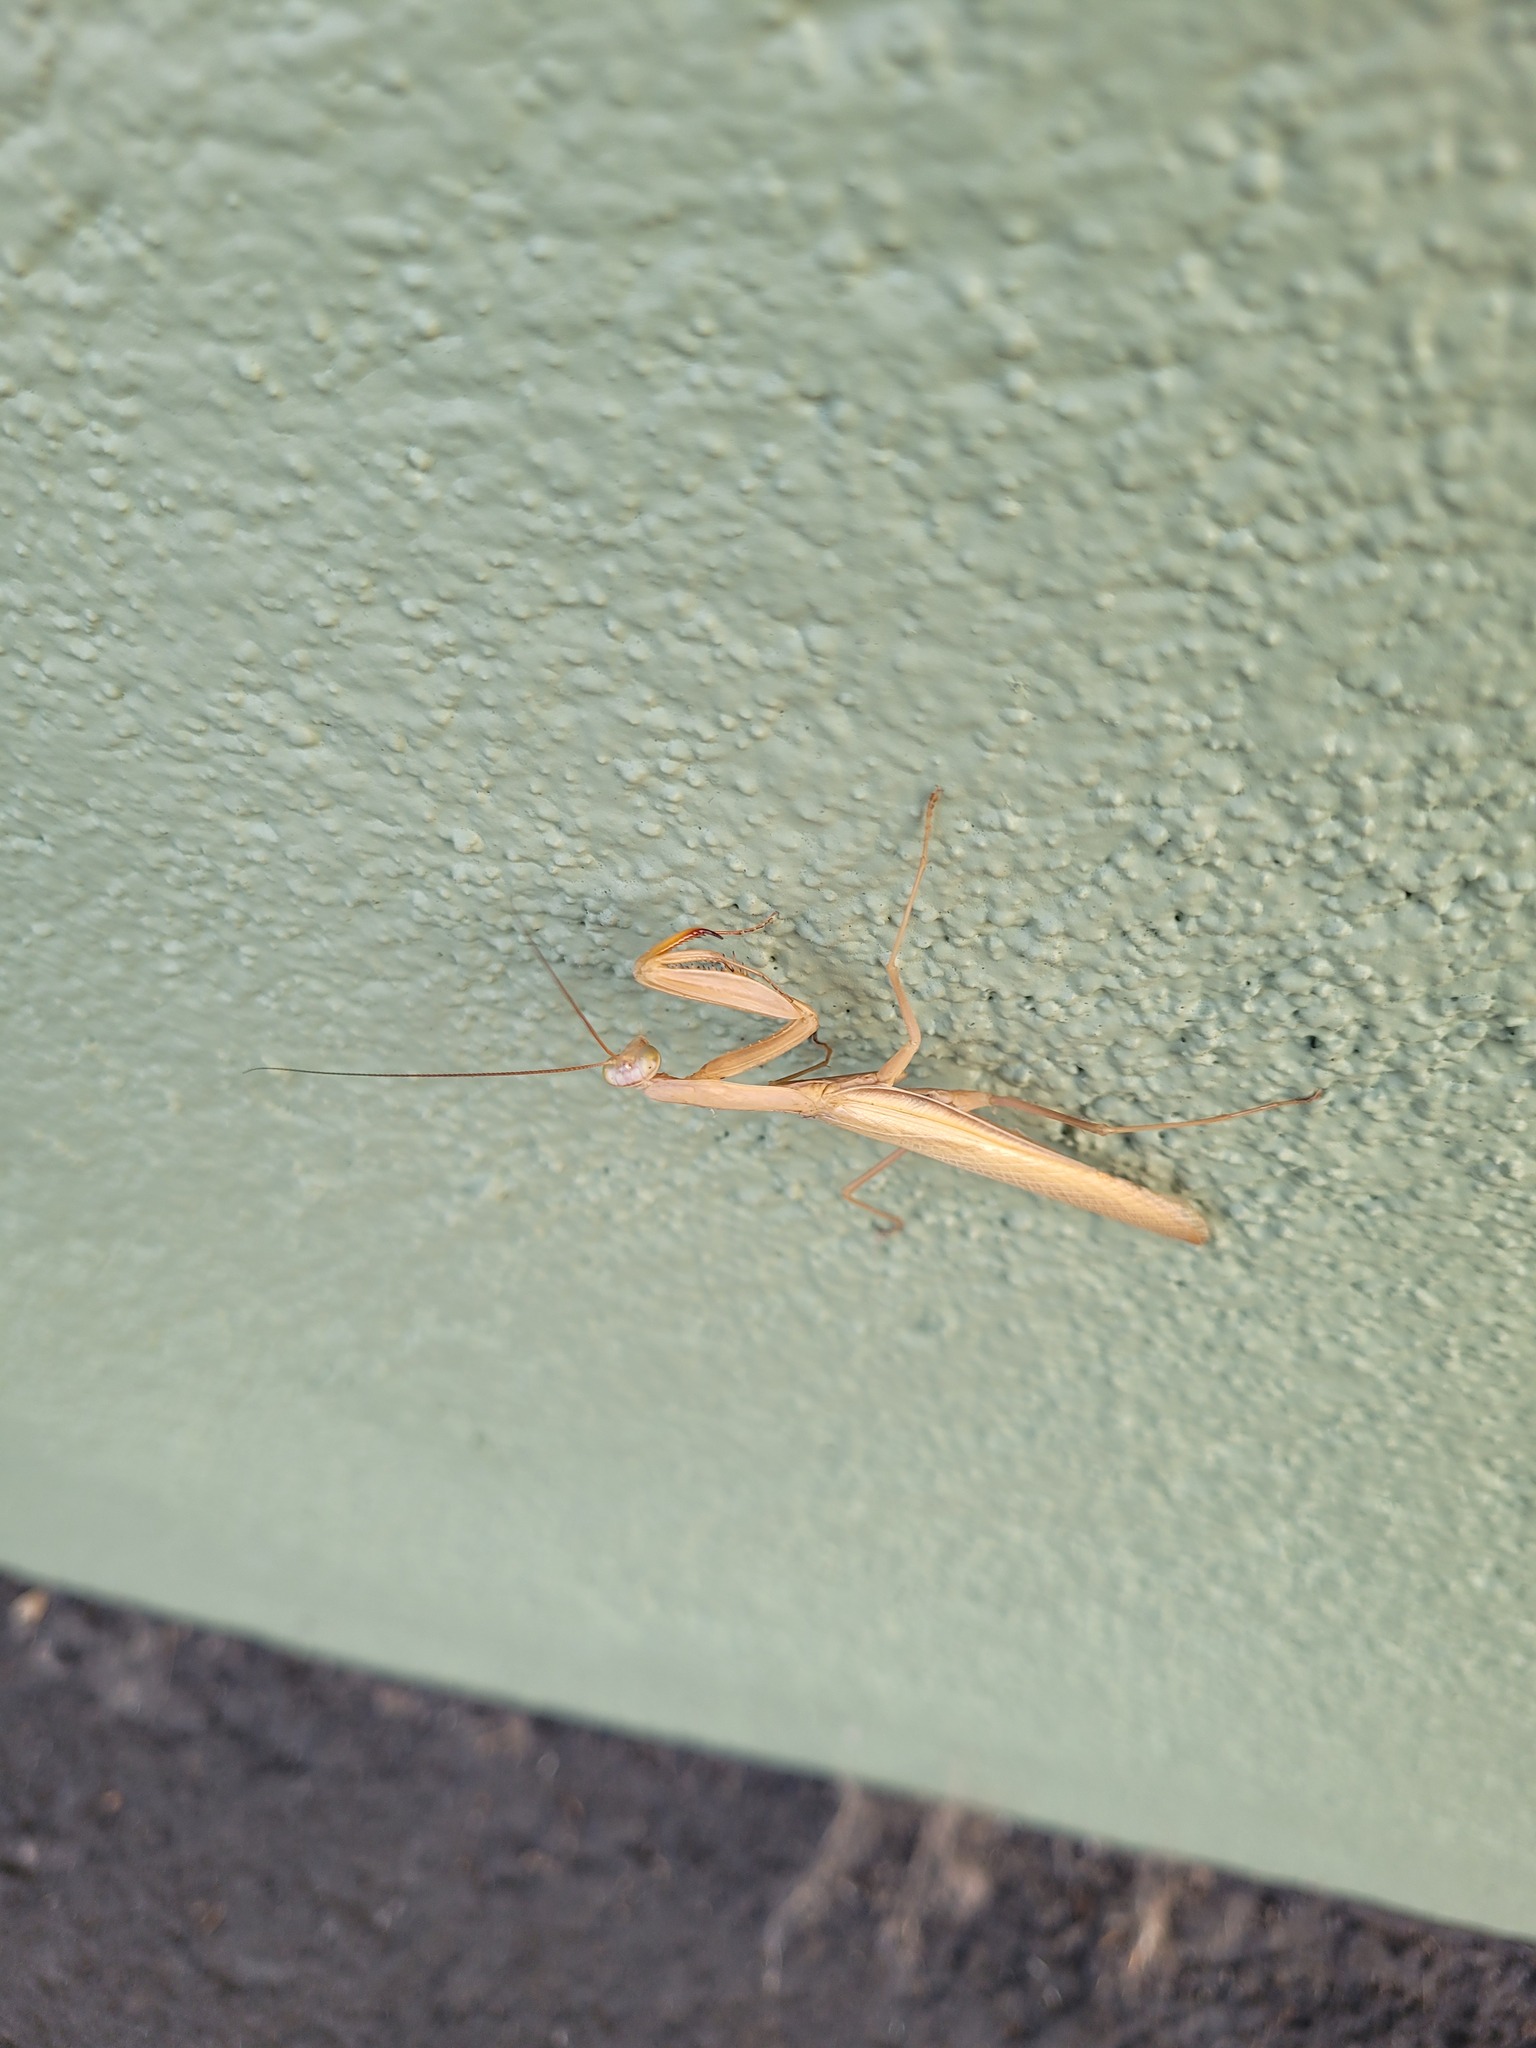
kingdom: Animalia
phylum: Arthropoda
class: Insecta
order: Mantodea
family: Mantidae
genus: Mantis
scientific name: Mantis religiosa
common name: Praying mantis
